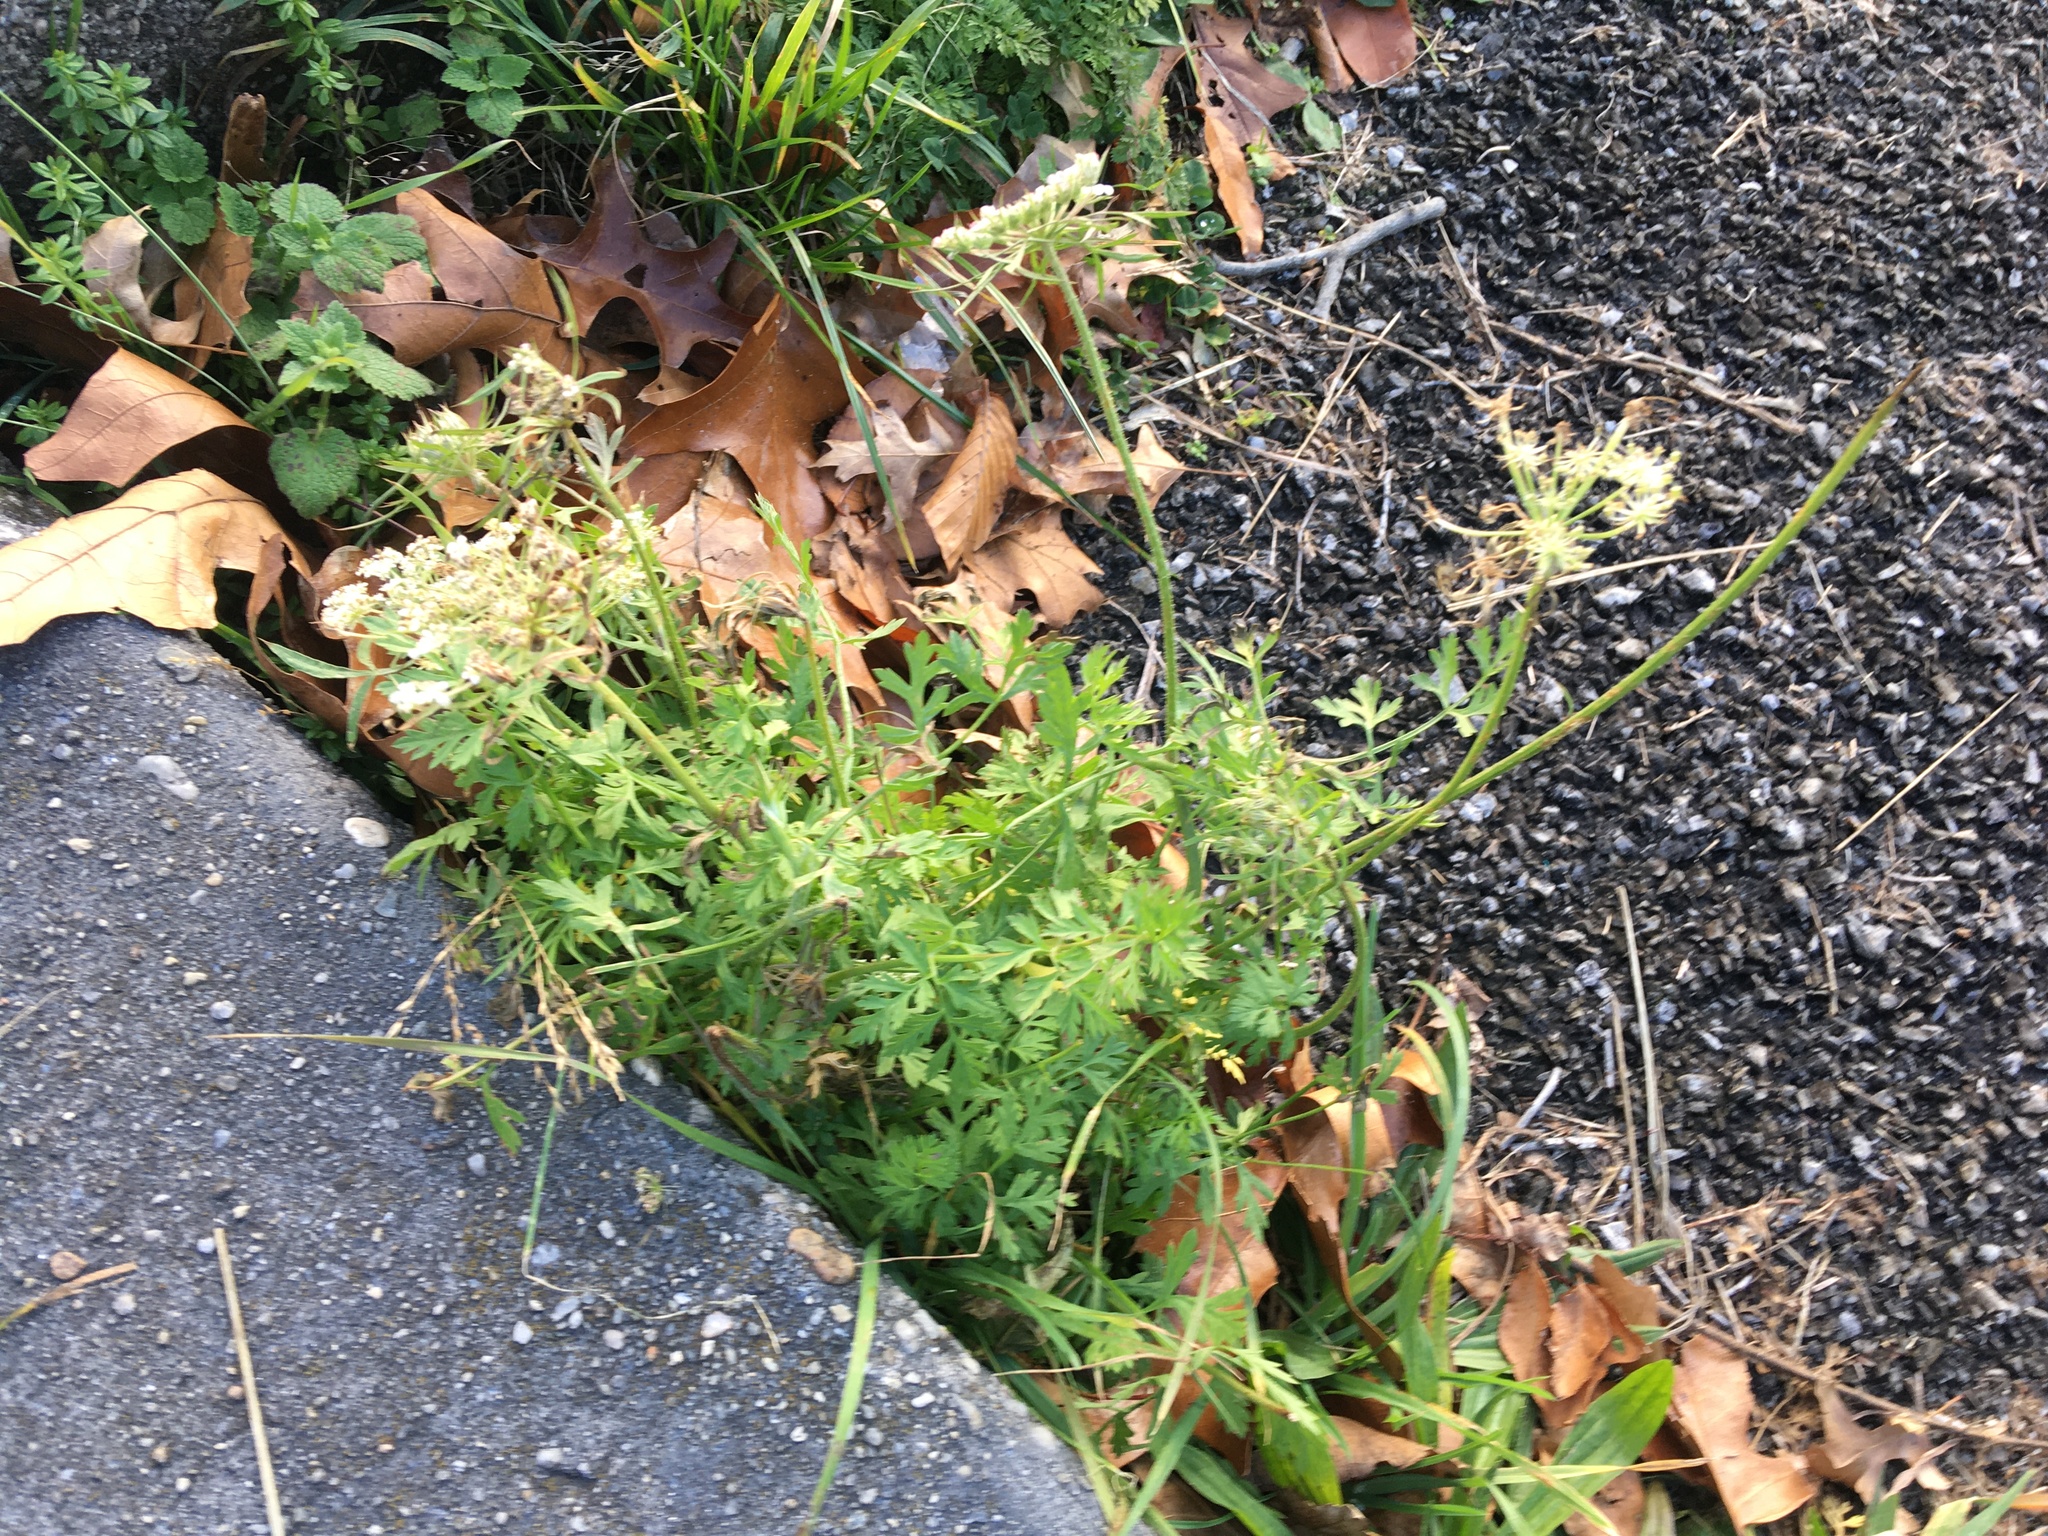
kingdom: Plantae
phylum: Tracheophyta
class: Magnoliopsida
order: Apiales
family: Apiaceae
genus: Daucus
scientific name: Daucus carota
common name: Wild carrot
